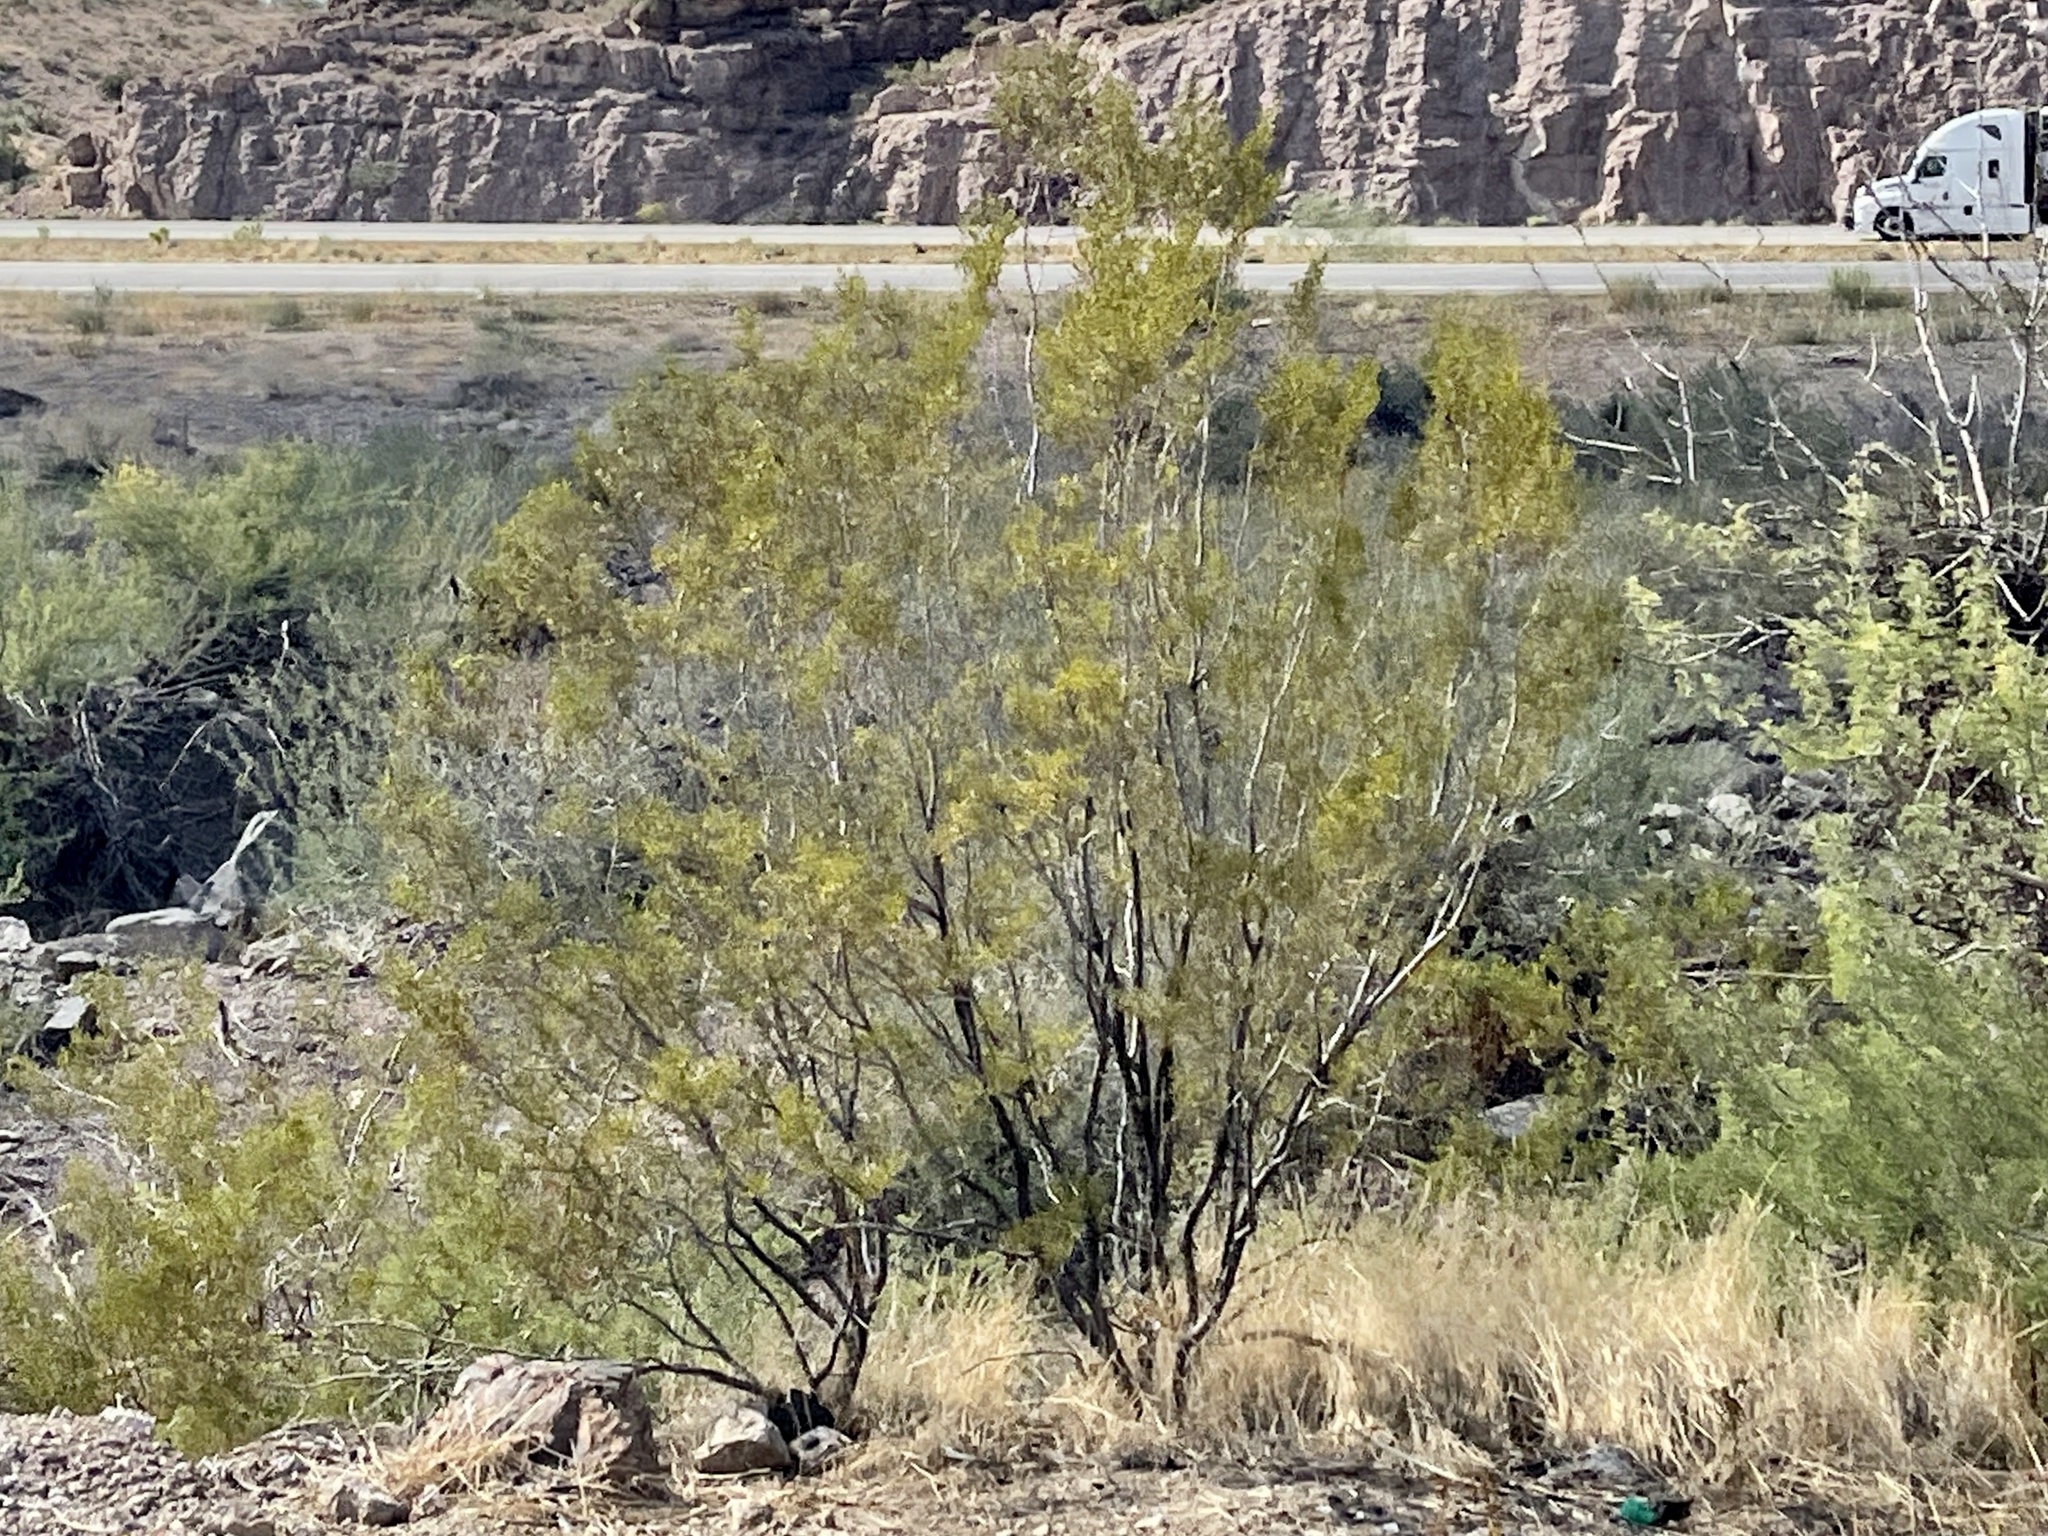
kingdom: Plantae
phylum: Tracheophyta
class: Magnoliopsida
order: Zygophyllales
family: Zygophyllaceae
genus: Larrea
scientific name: Larrea tridentata
